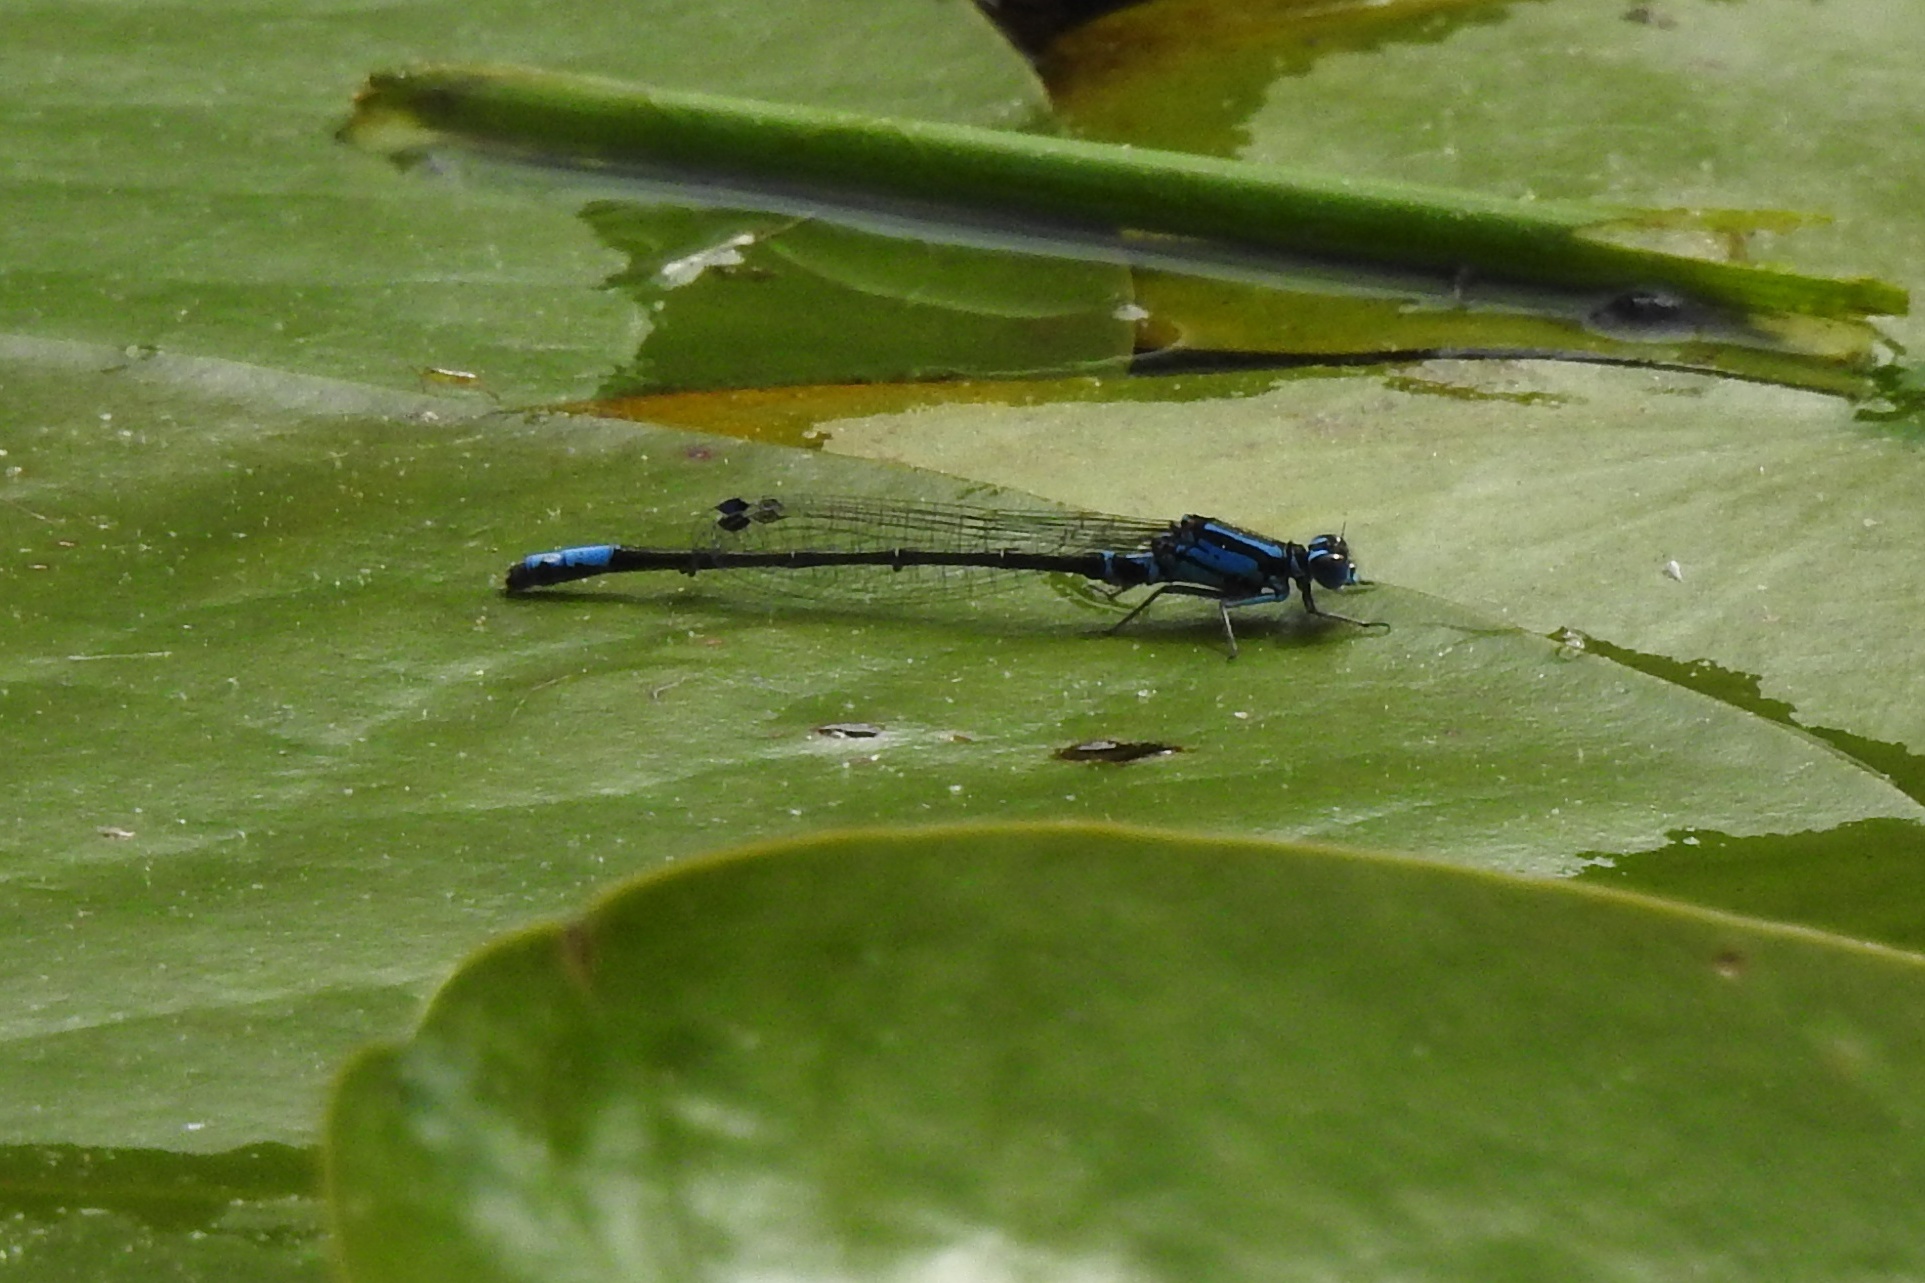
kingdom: Animalia
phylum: Arthropoda
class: Insecta
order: Odonata
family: Coenagrionidae
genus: Ischnura
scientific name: Ischnura kellicotti
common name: Lilypad forktail
